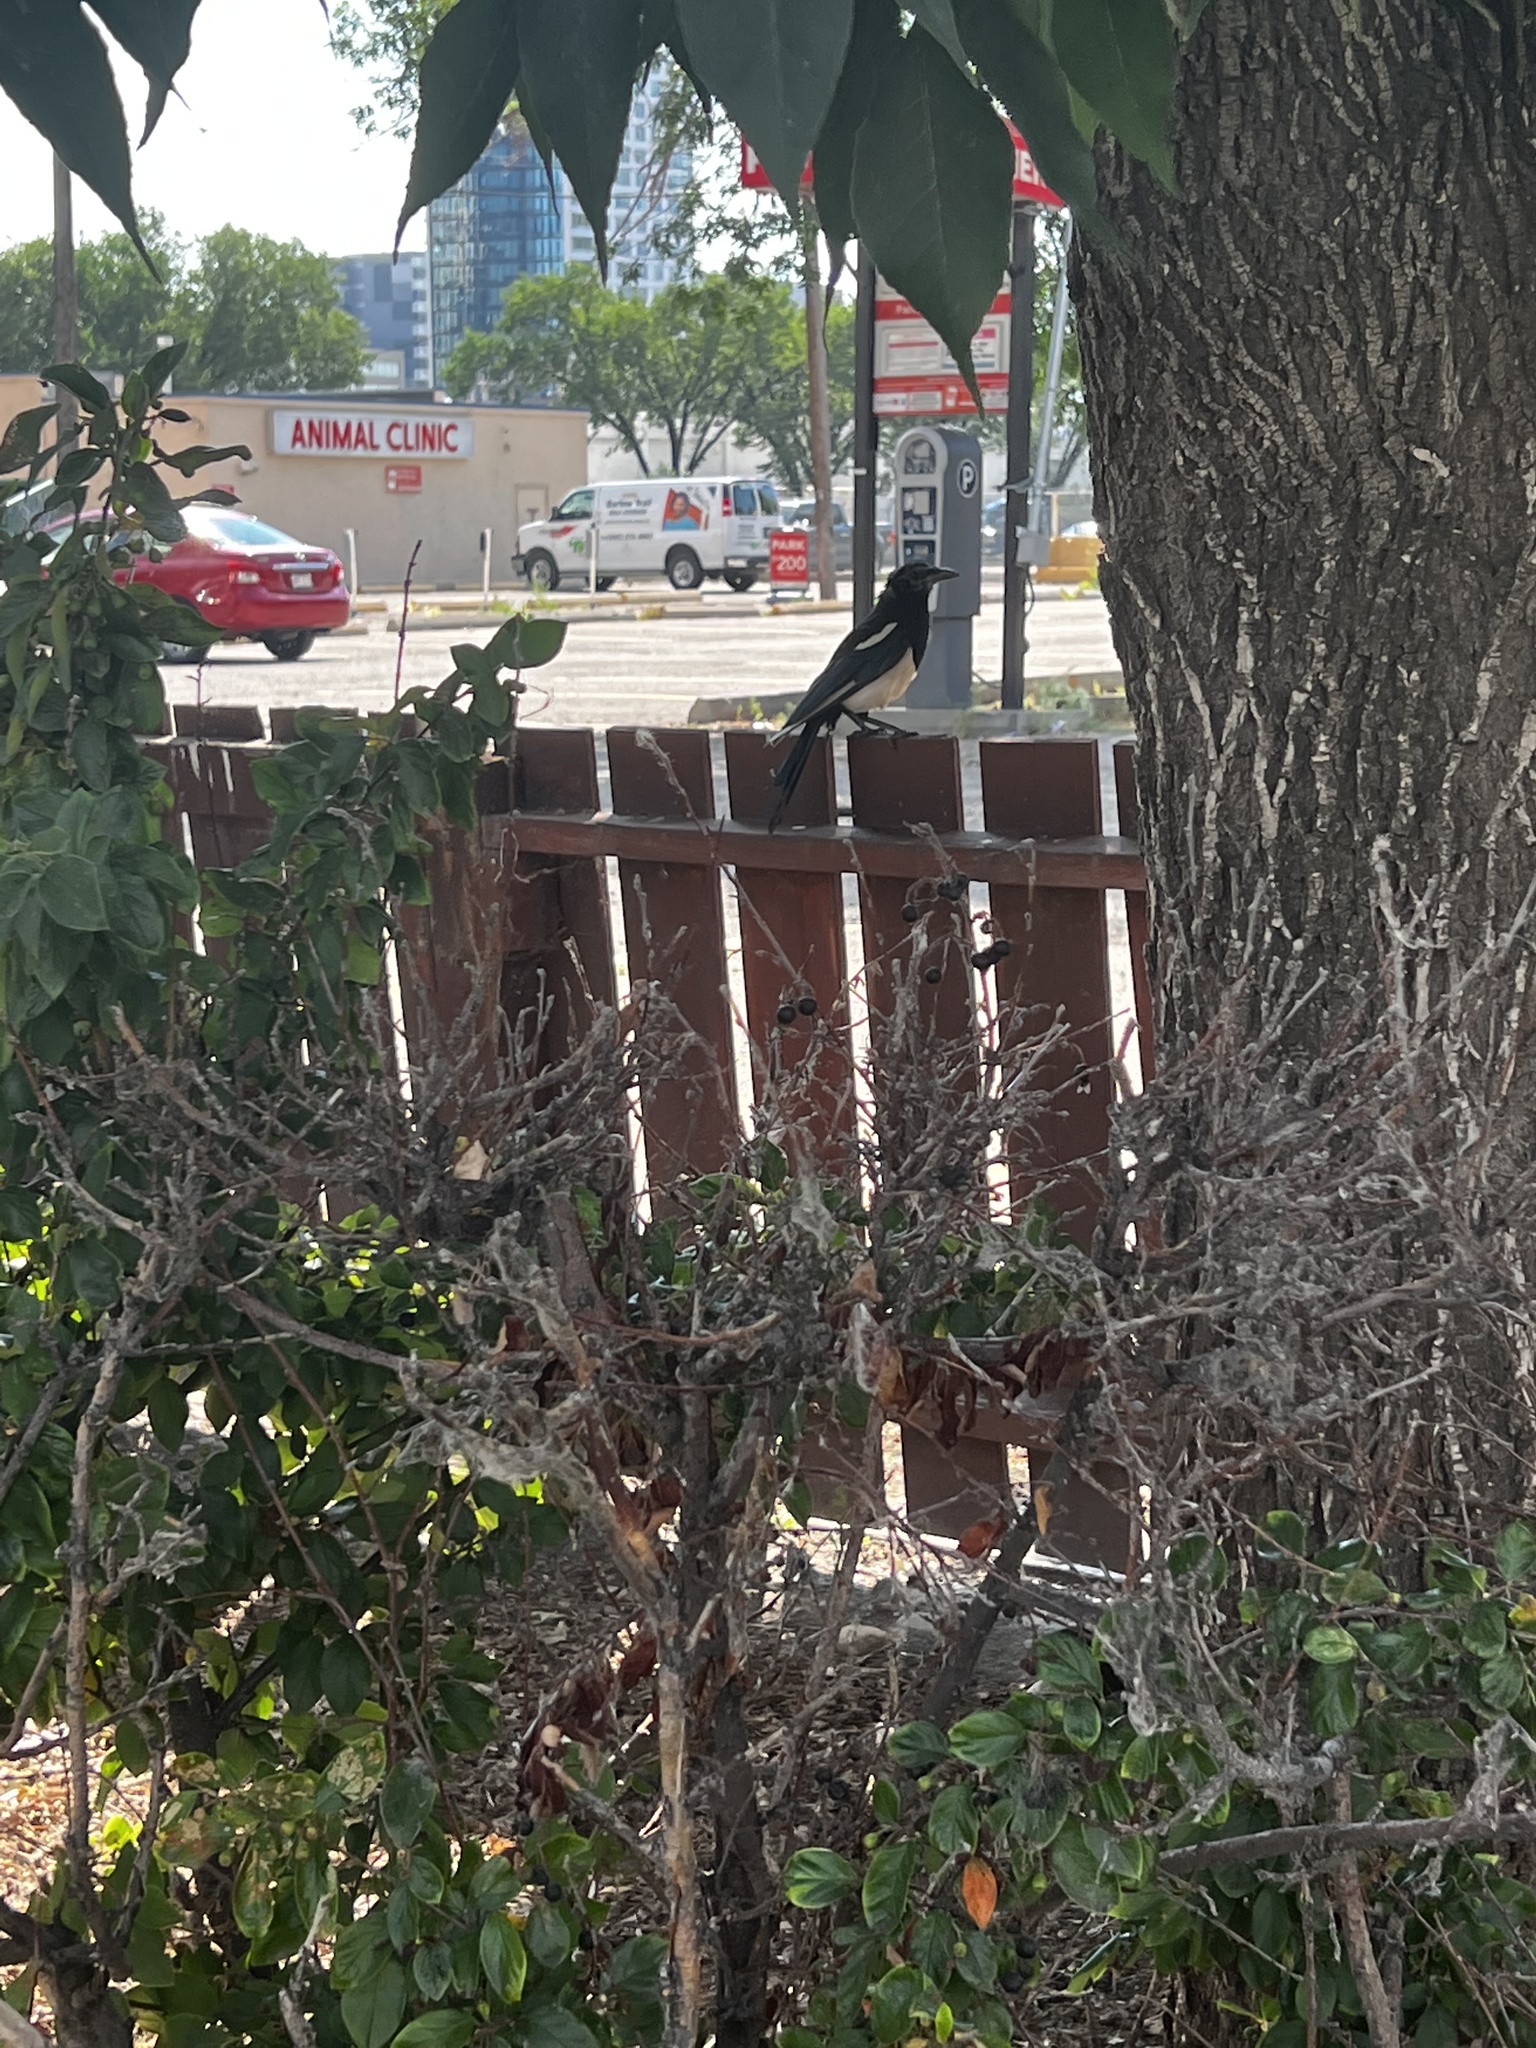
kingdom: Animalia
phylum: Chordata
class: Aves
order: Passeriformes
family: Corvidae
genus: Pica
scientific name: Pica hudsonia
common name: Black-billed magpie
